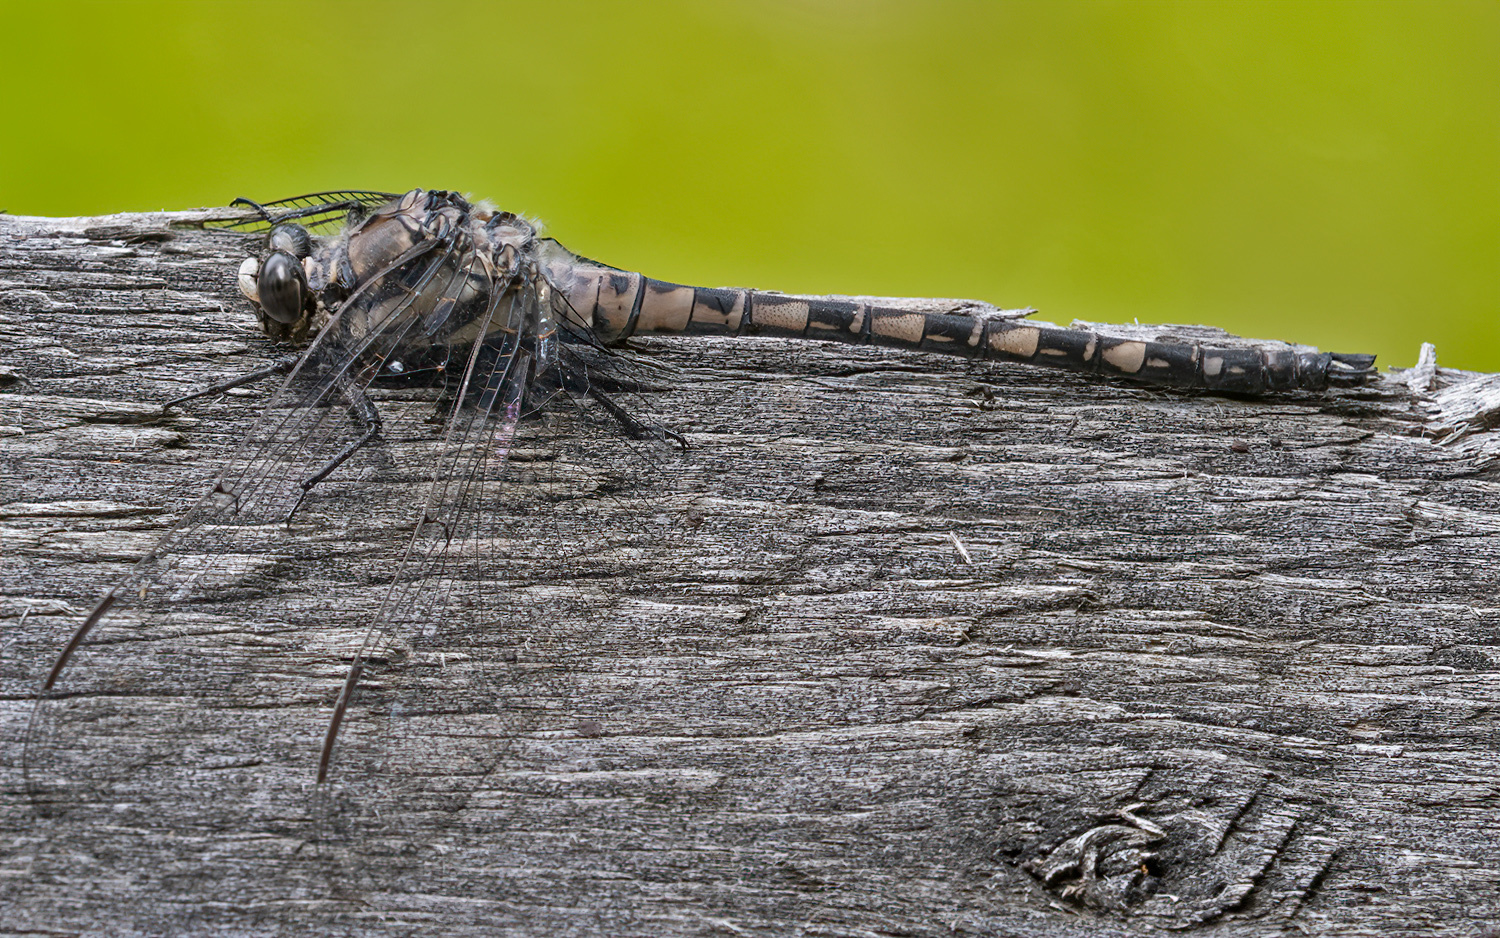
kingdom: Animalia
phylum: Arthropoda
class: Insecta
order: Odonata
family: Petaluridae
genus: Tachopteryx
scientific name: Tachopteryx thoreyi
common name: Gray petaltail
